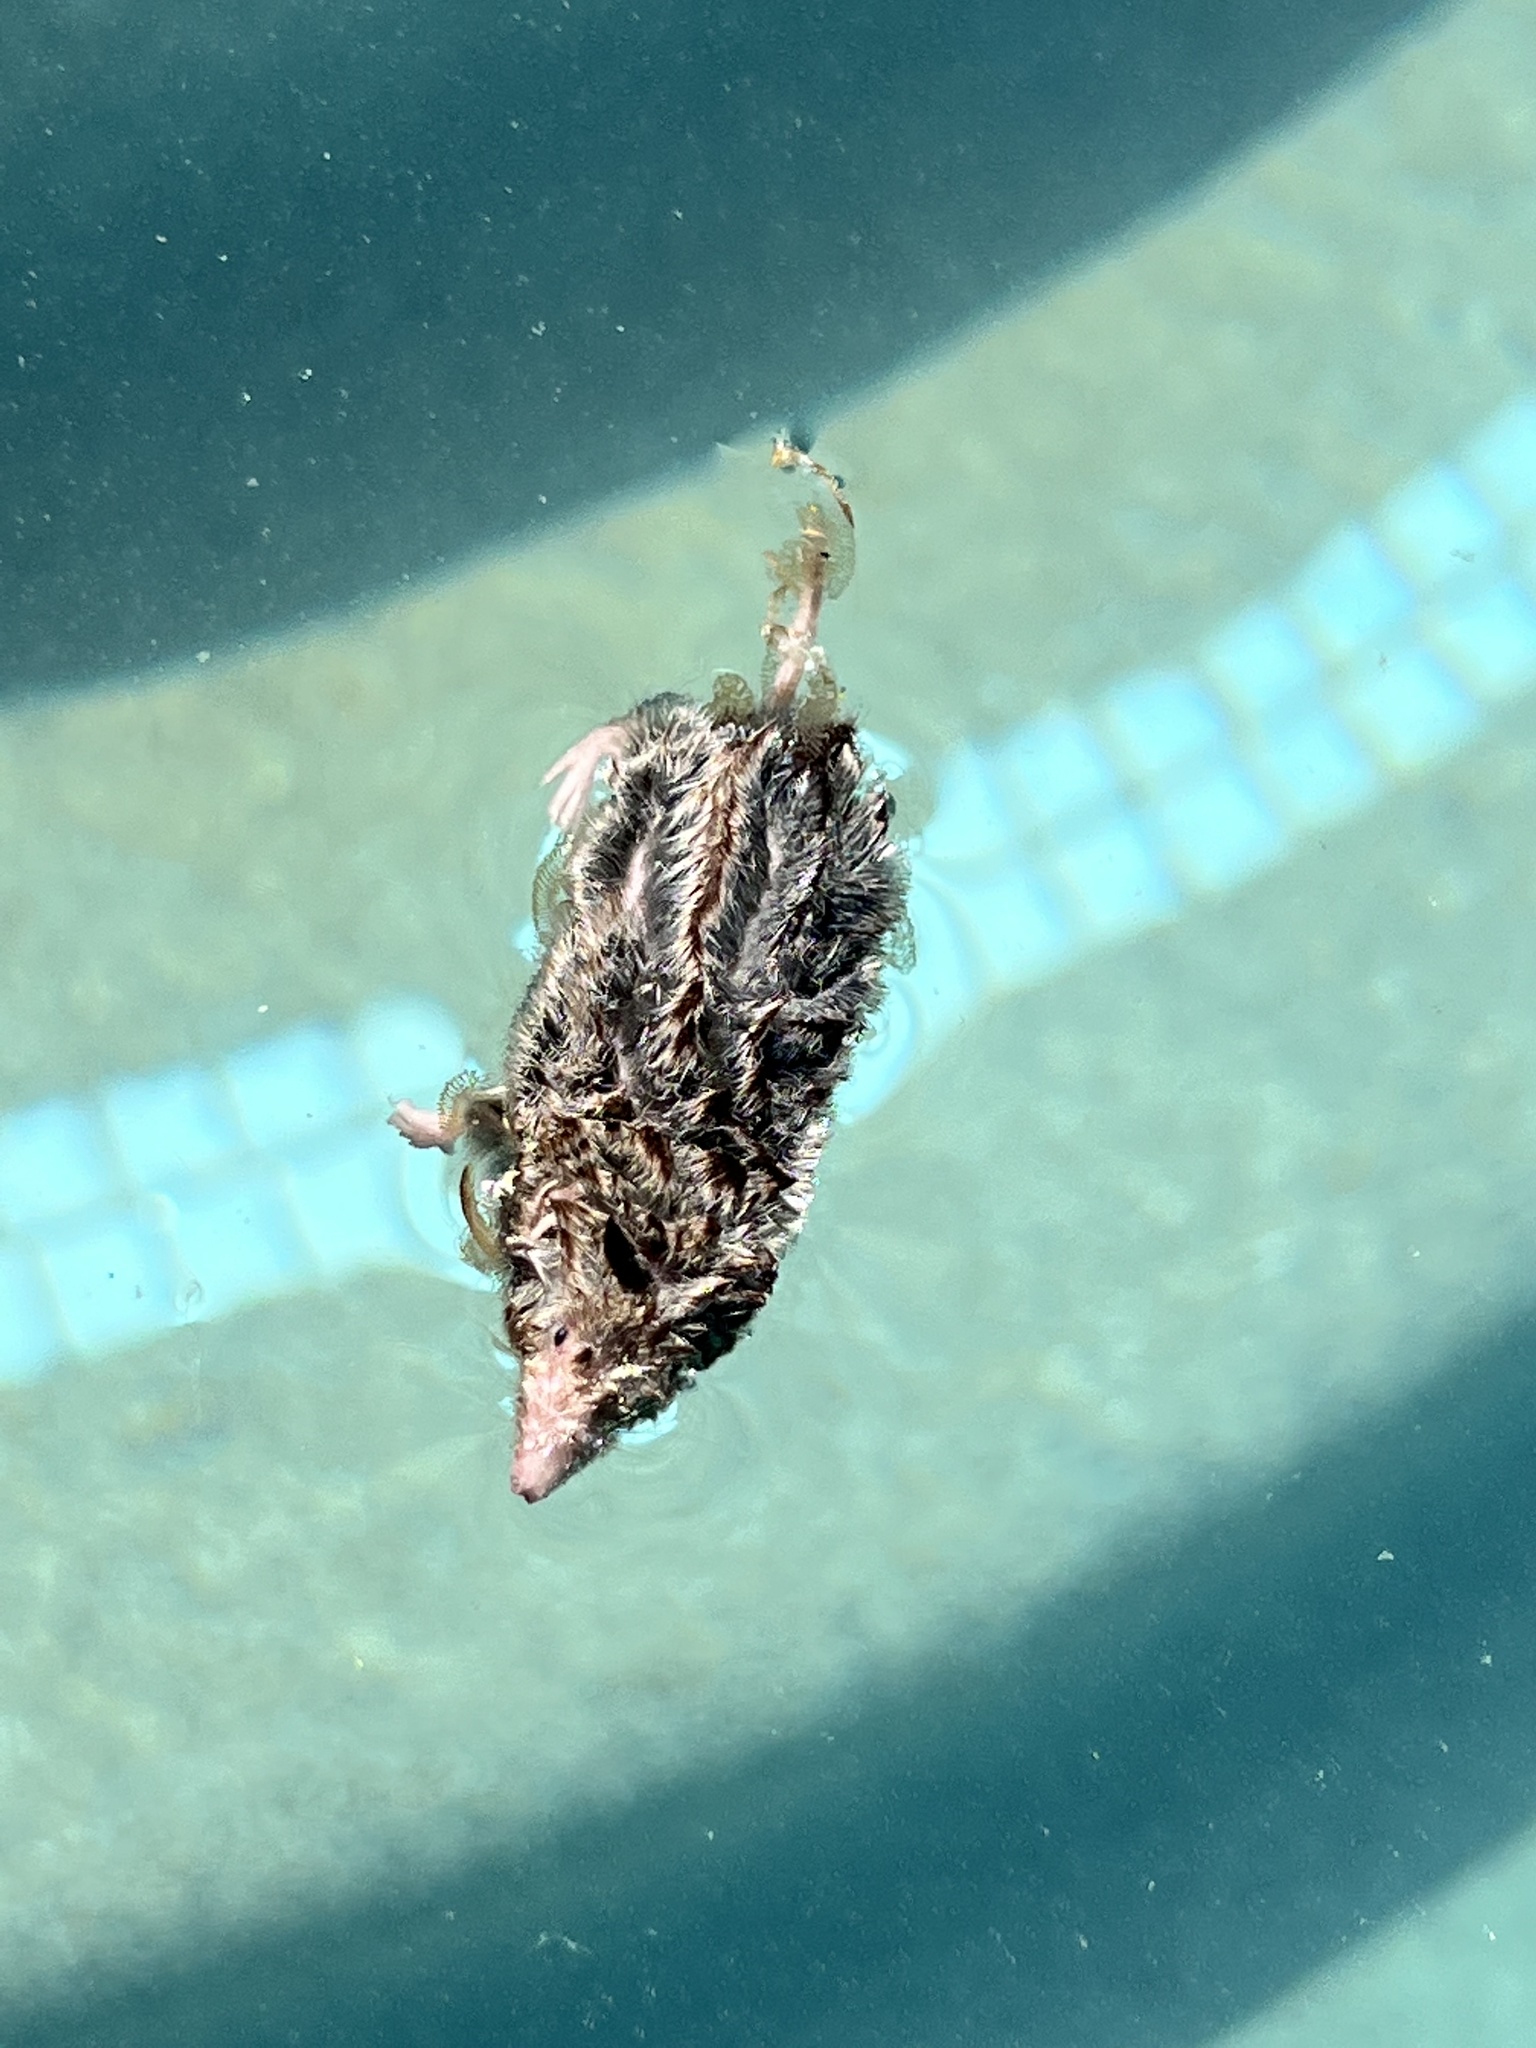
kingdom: Animalia
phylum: Chordata
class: Mammalia
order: Soricomorpha
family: Soricidae
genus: Cryptotis
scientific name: Cryptotis parva
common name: North american least shrew
